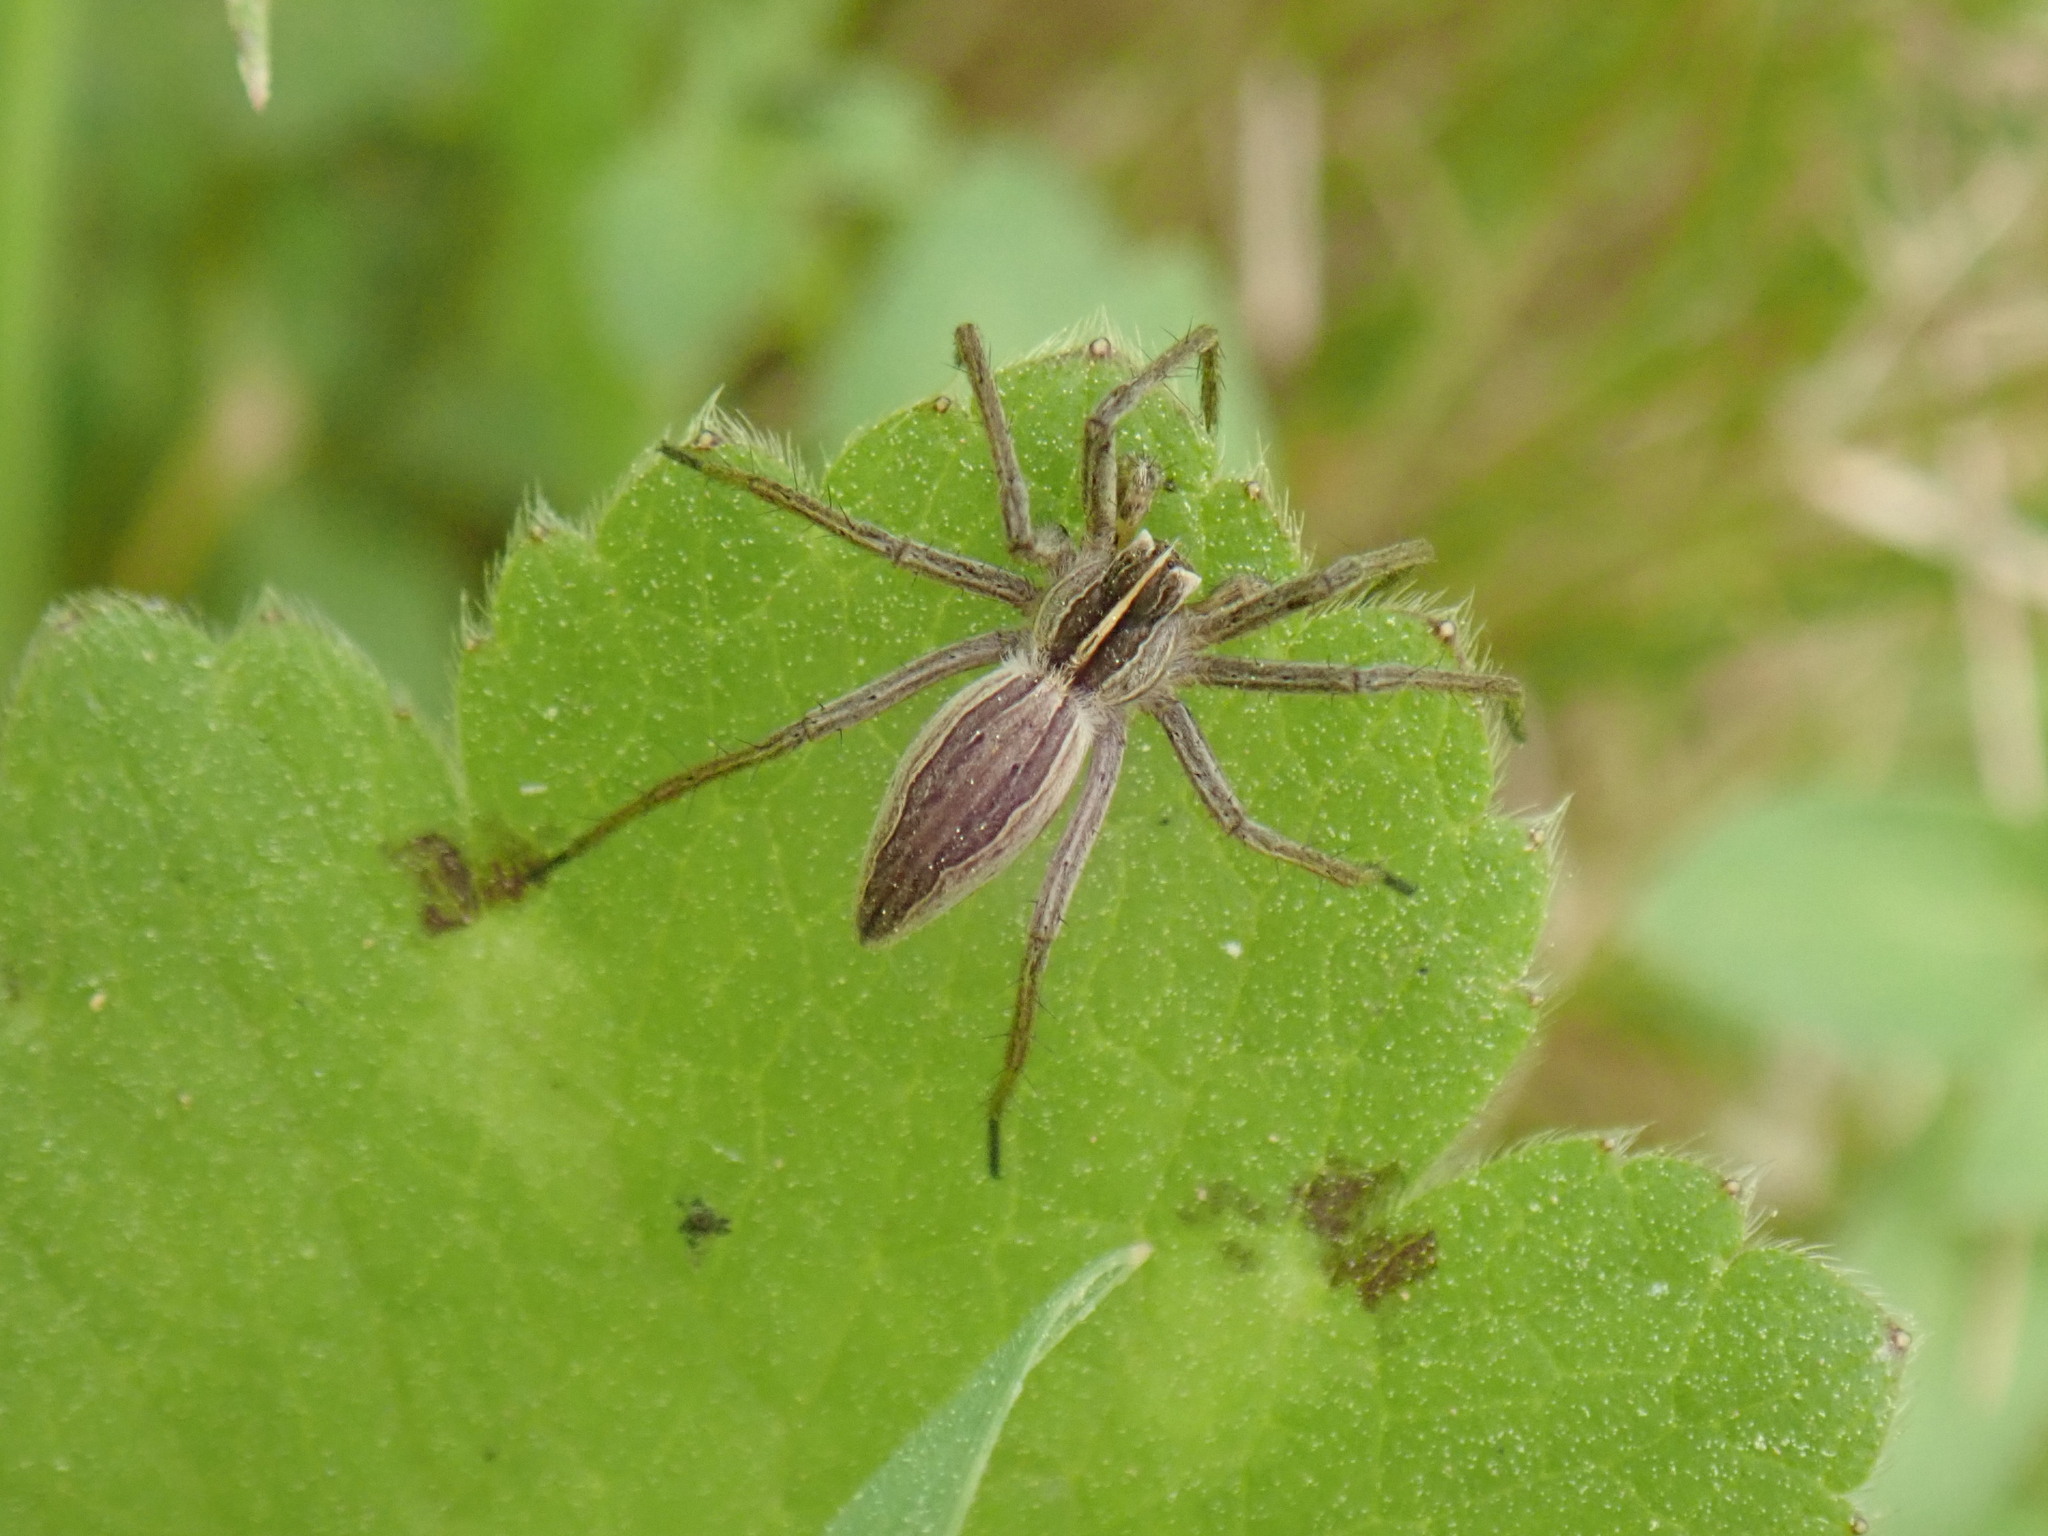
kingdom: Animalia
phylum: Arthropoda
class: Arachnida
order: Araneae
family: Pisauridae
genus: Pisaura
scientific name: Pisaura mirabilis
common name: Tent spider
